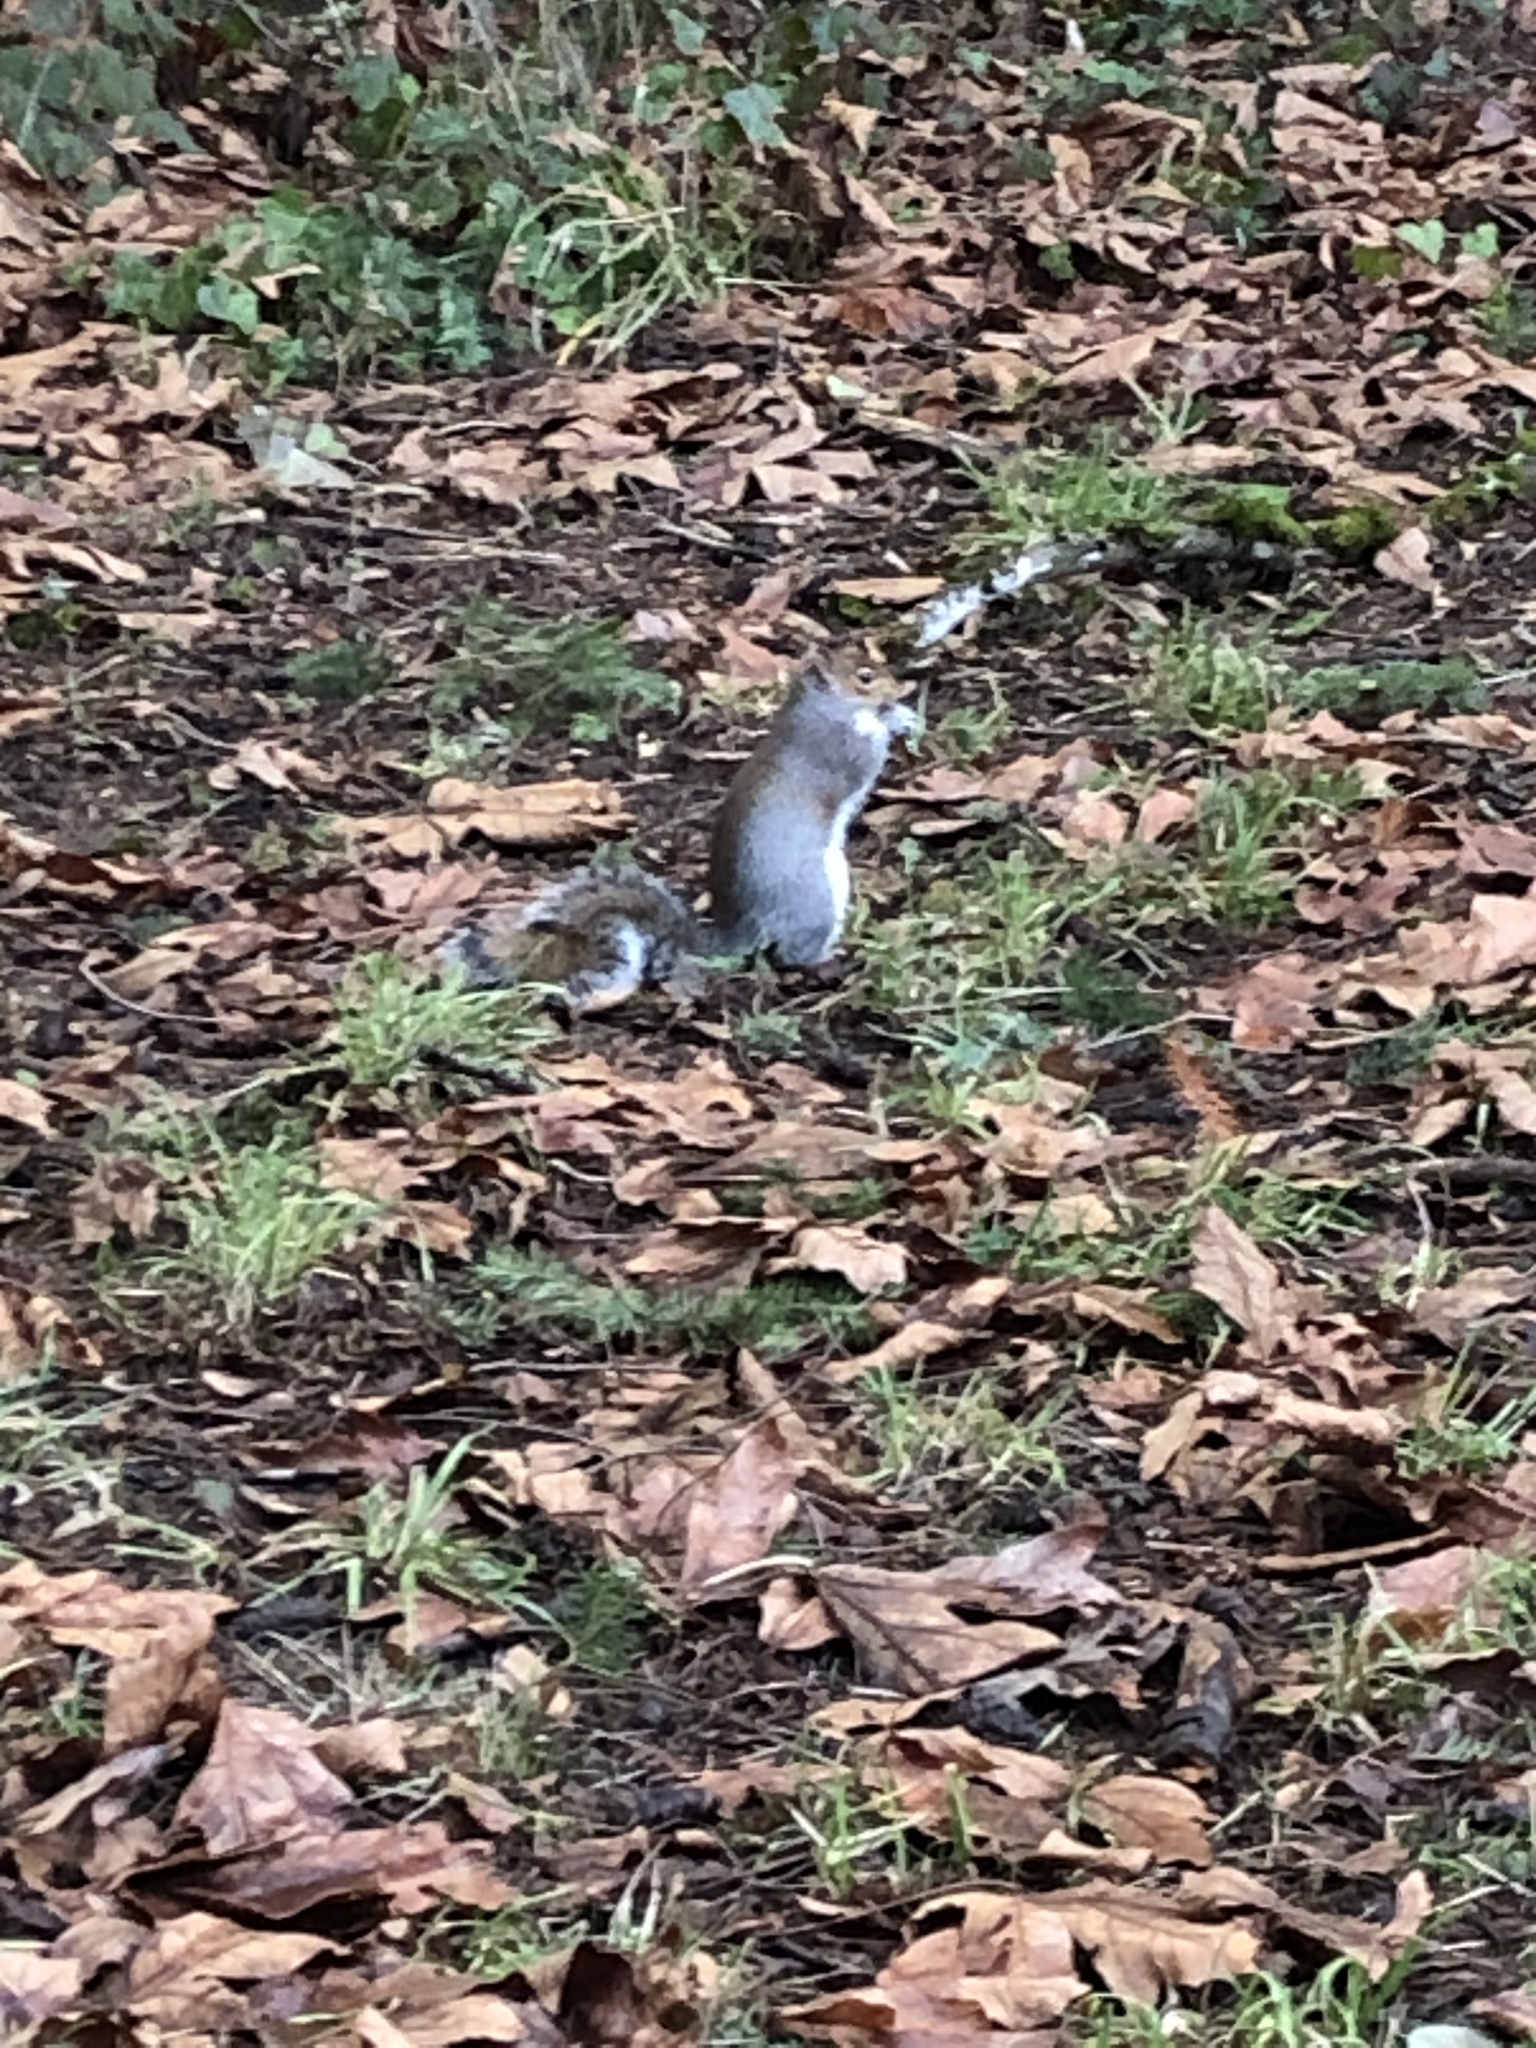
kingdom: Animalia
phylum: Chordata
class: Mammalia
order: Rodentia
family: Sciuridae
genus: Sciurus
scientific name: Sciurus carolinensis
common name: Eastern gray squirrel
